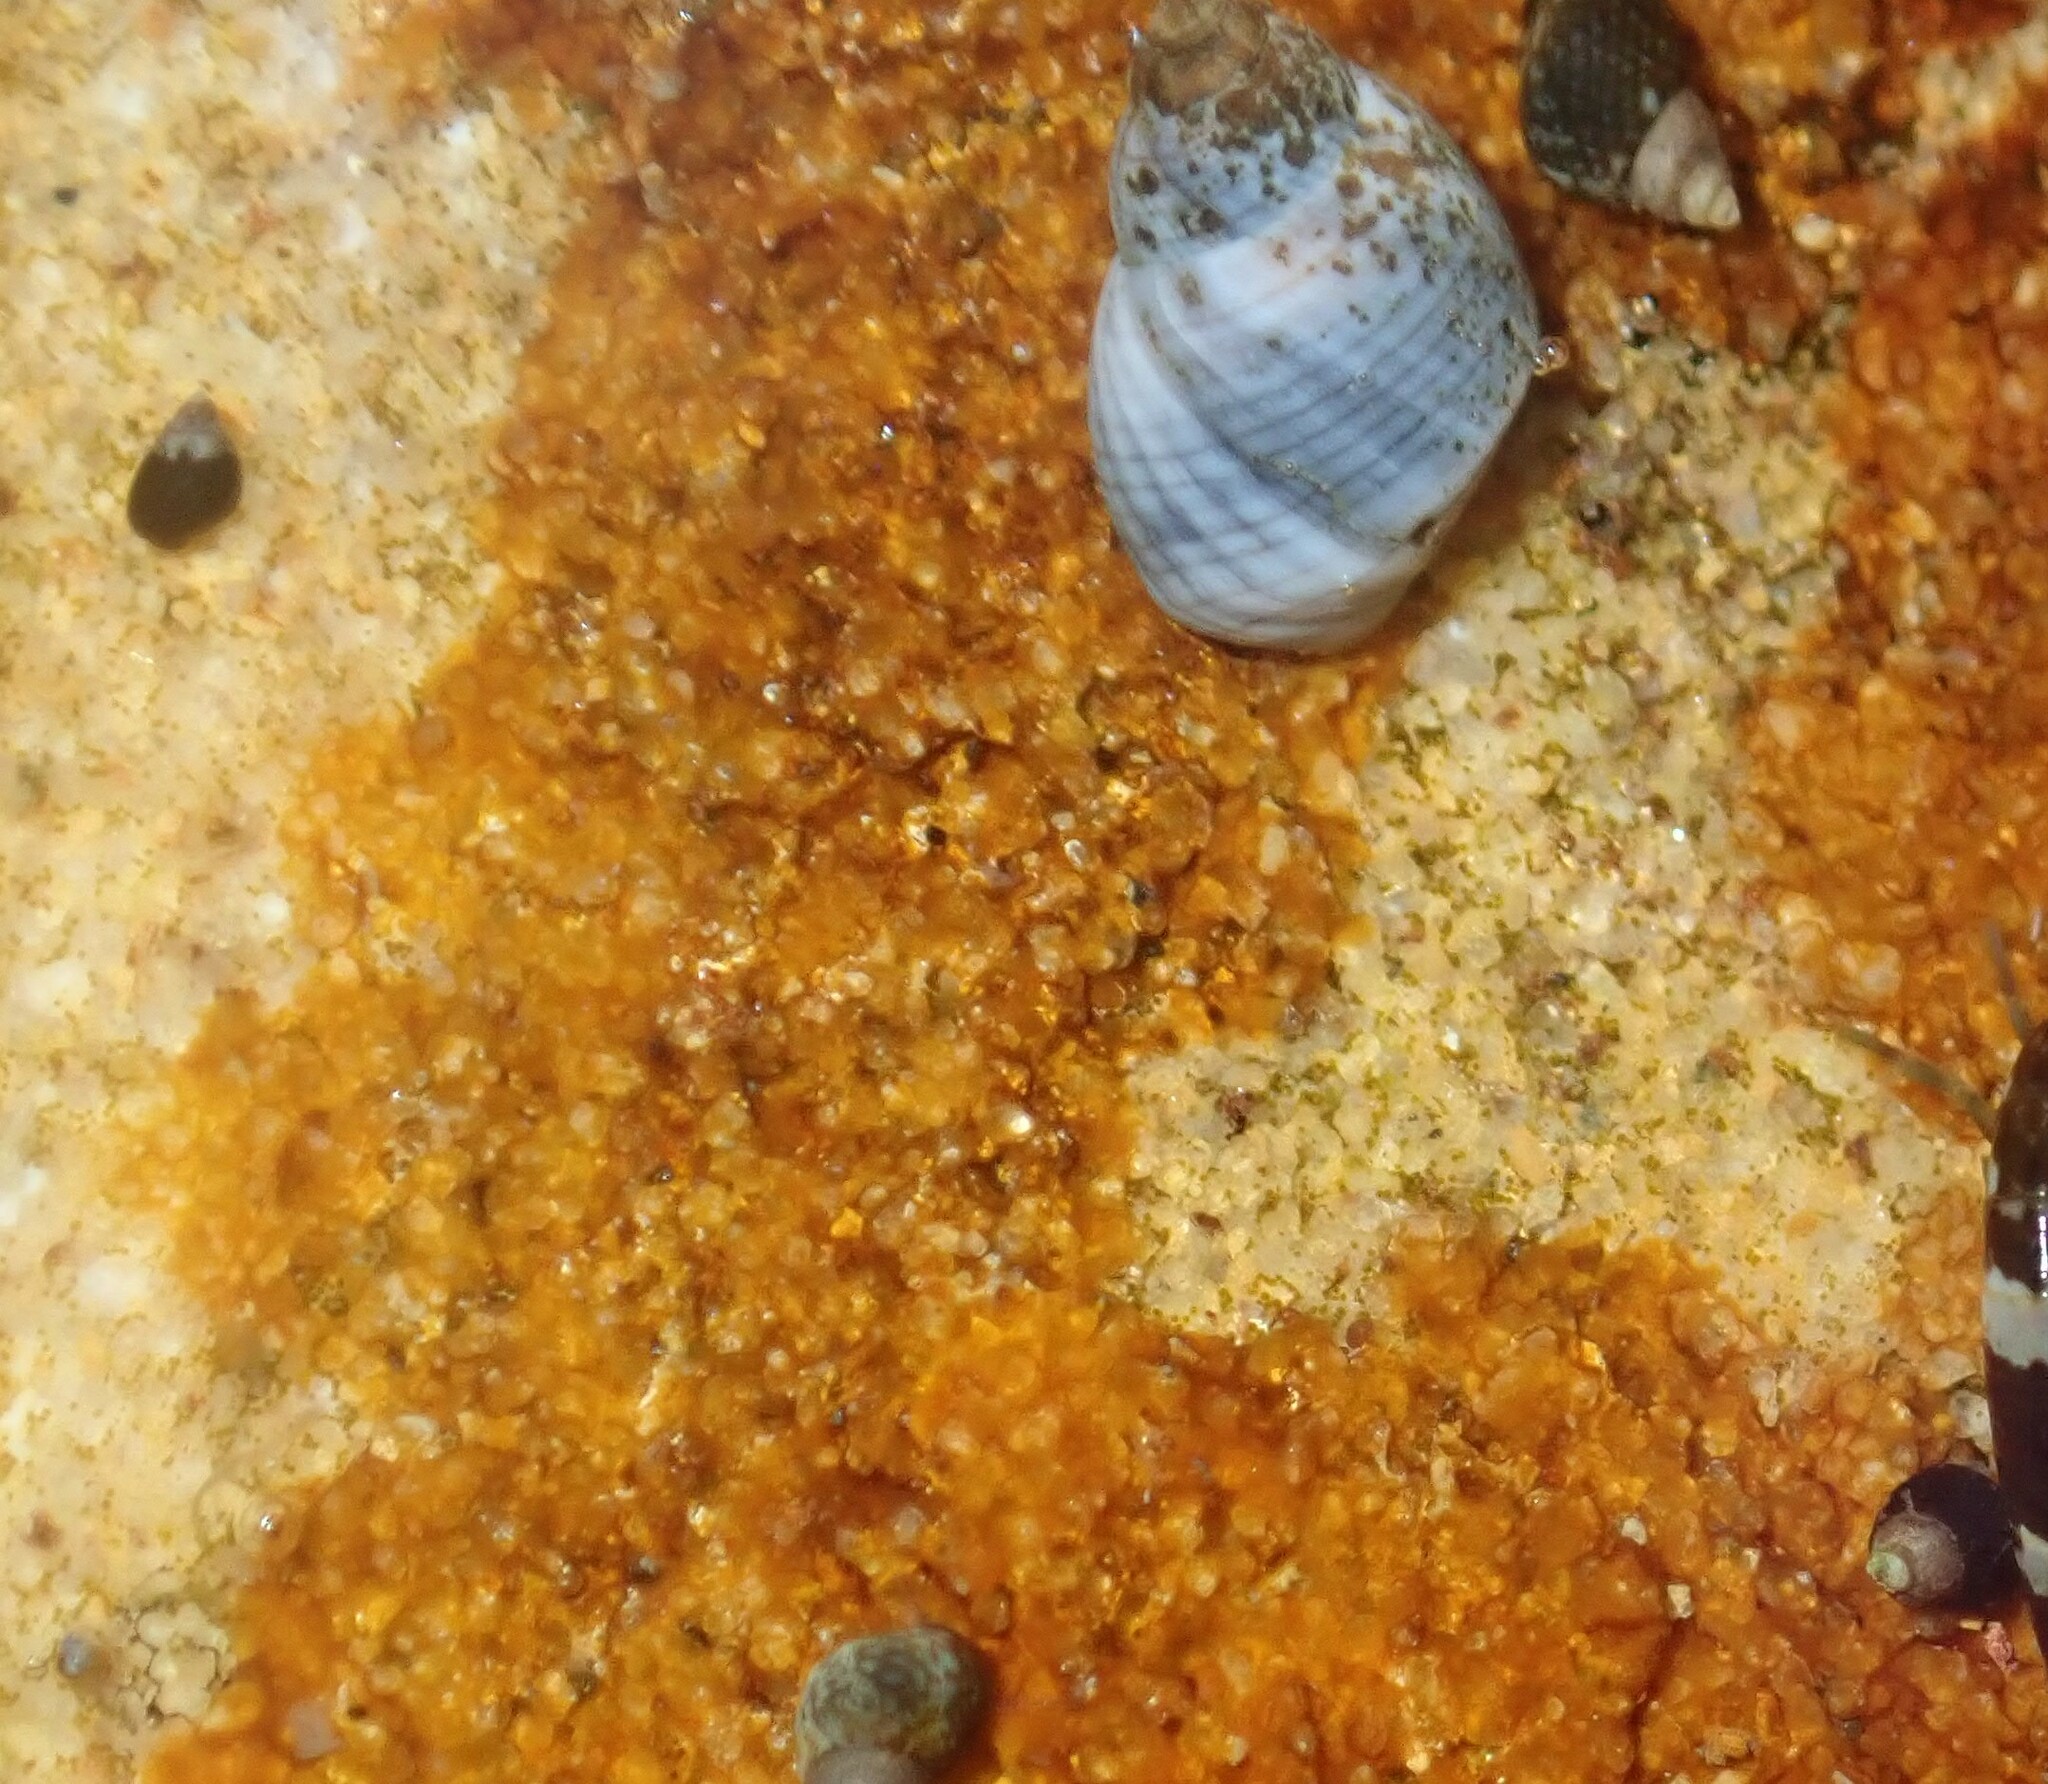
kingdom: Animalia
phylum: Mollusca
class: Gastropoda
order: Littorinimorpha
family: Littorinidae
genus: Afrolittorina
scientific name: Afrolittorina acutispira
